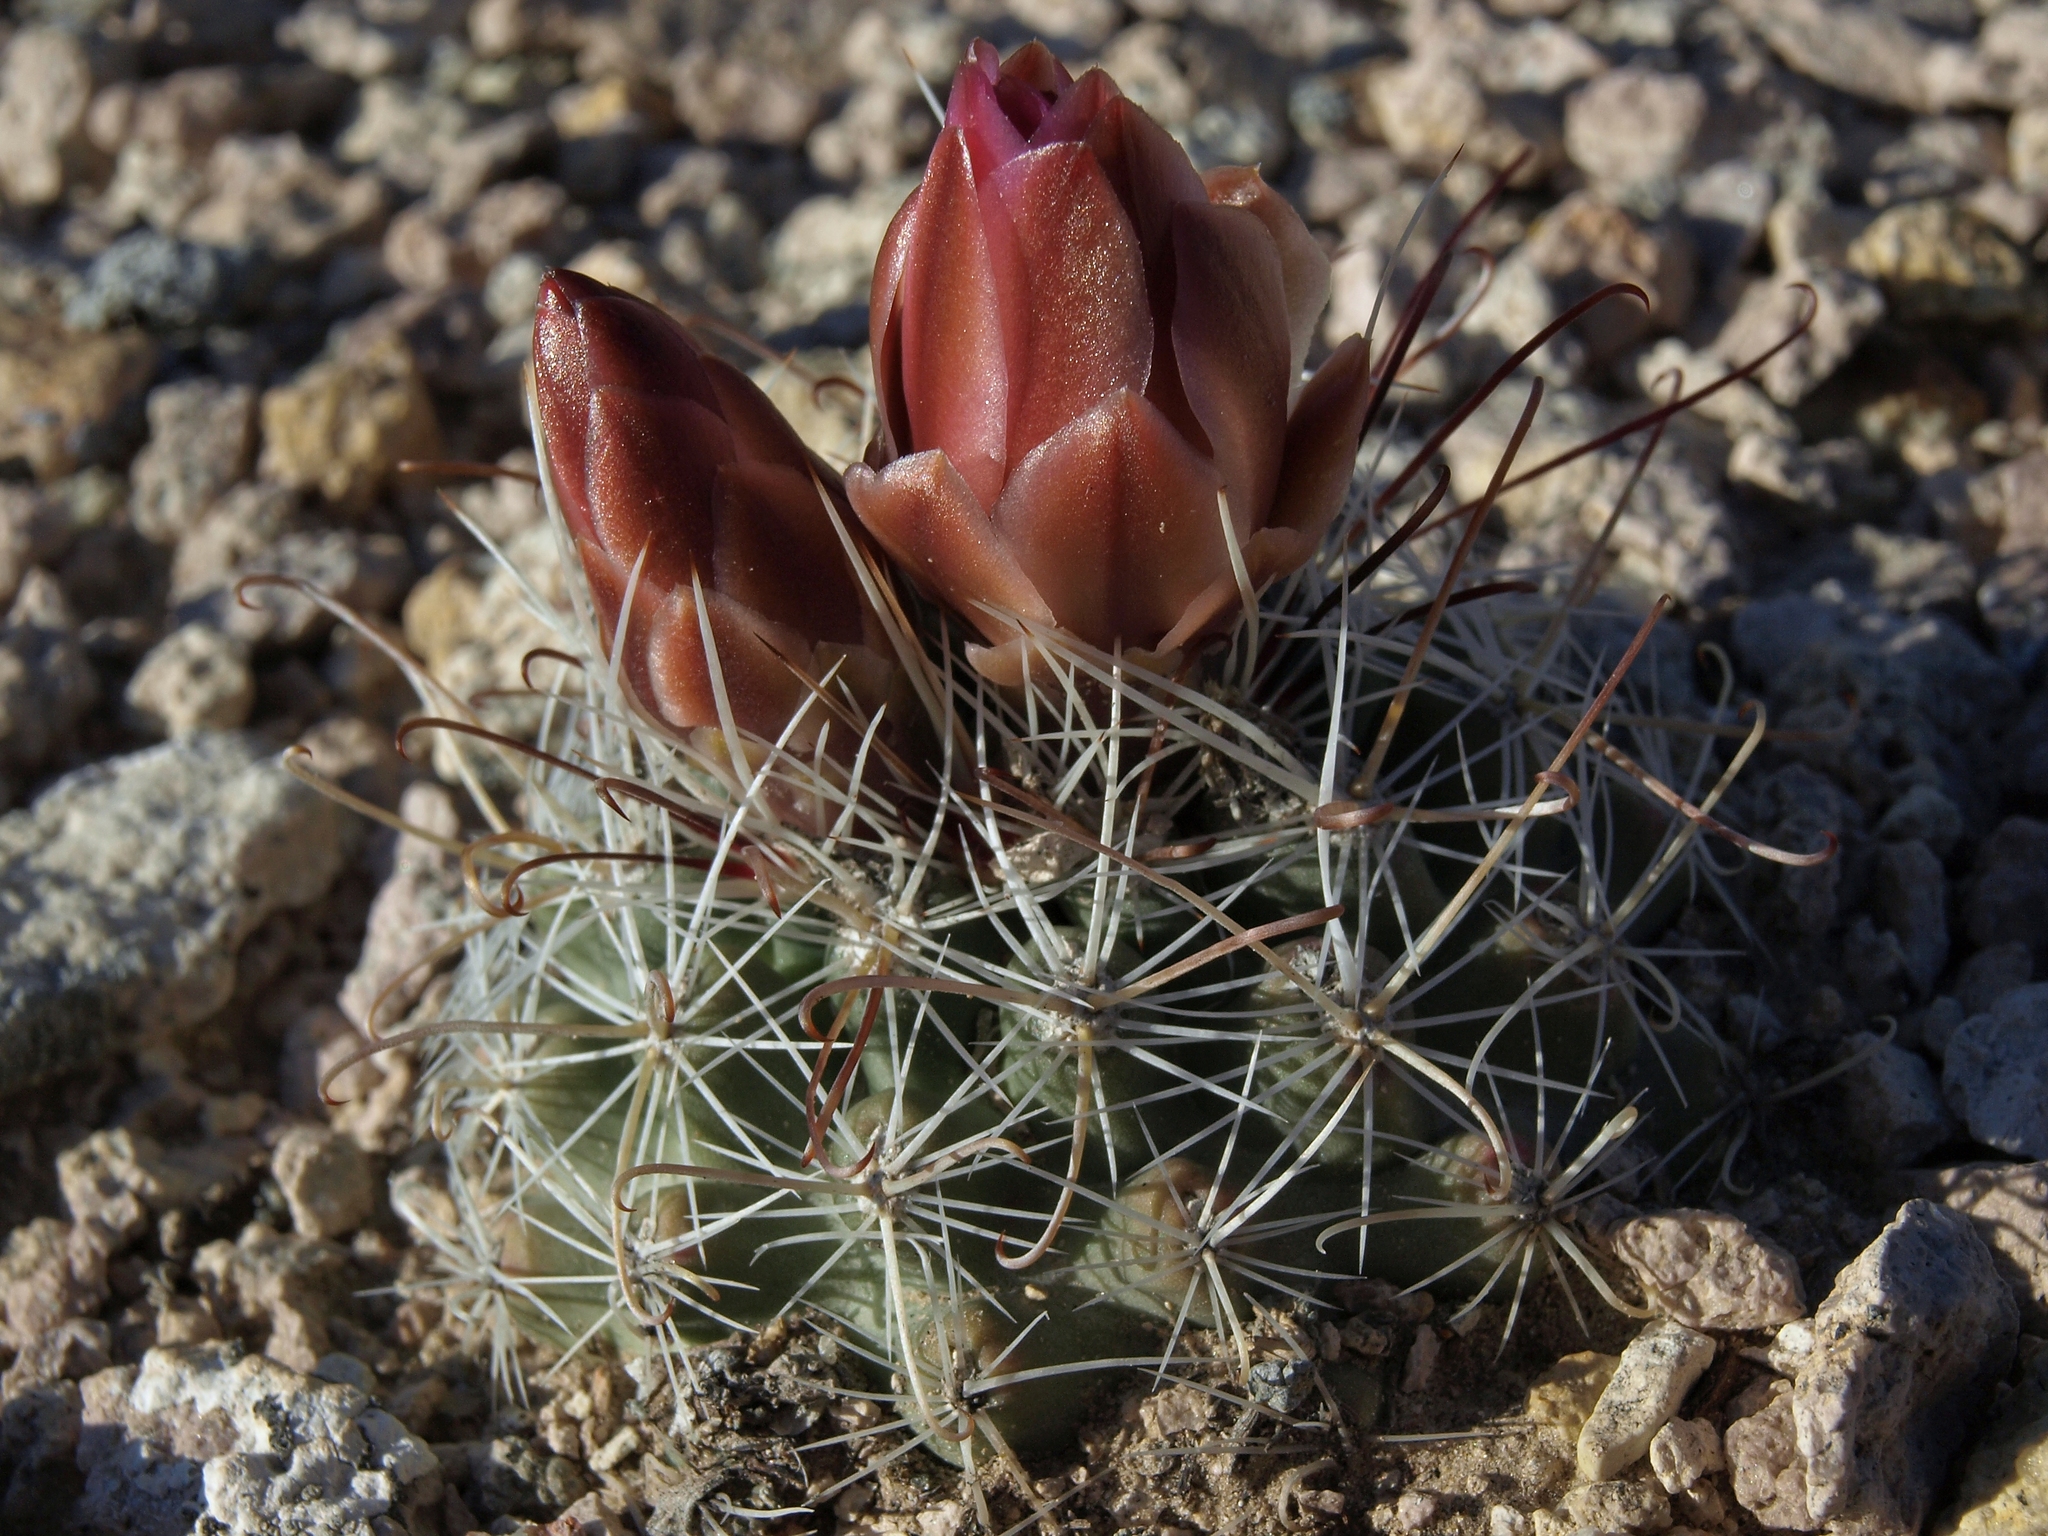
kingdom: Plantae
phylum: Tracheophyta
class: Magnoliopsida
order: Caryophyllales
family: Cactaceae
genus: Sclerocactus
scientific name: Sclerocactus nyensis
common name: Nye county fish-hook cactus
